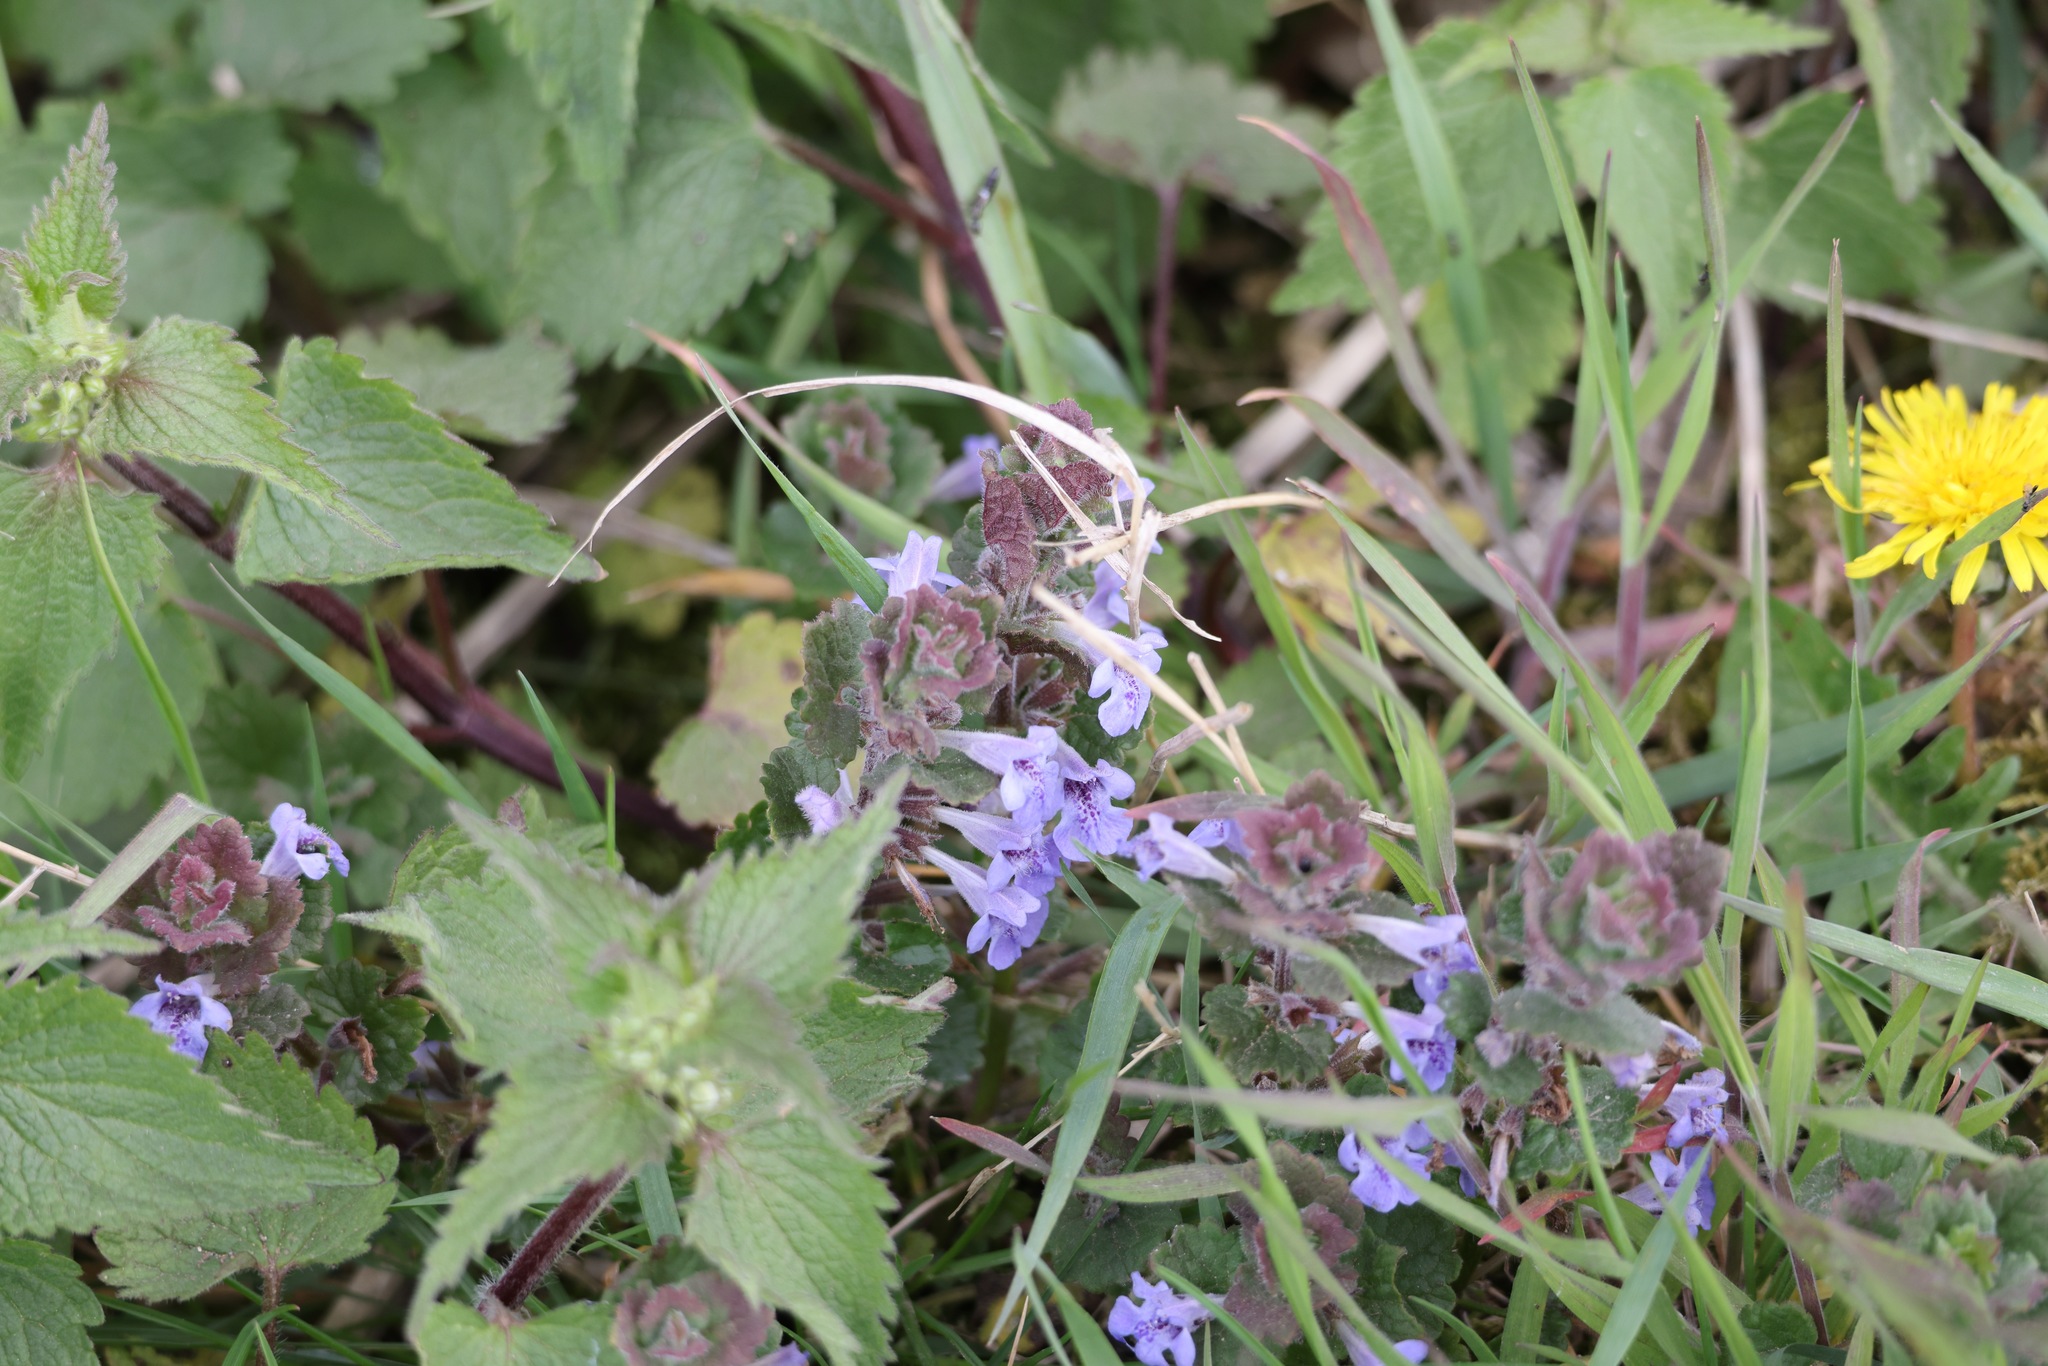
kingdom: Plantae
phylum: Tracheophyta
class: Magnoliopsida
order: Lamiales
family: Lamiaceae
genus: Glechoma
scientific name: Glechoma hederacea
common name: Ground ivy
